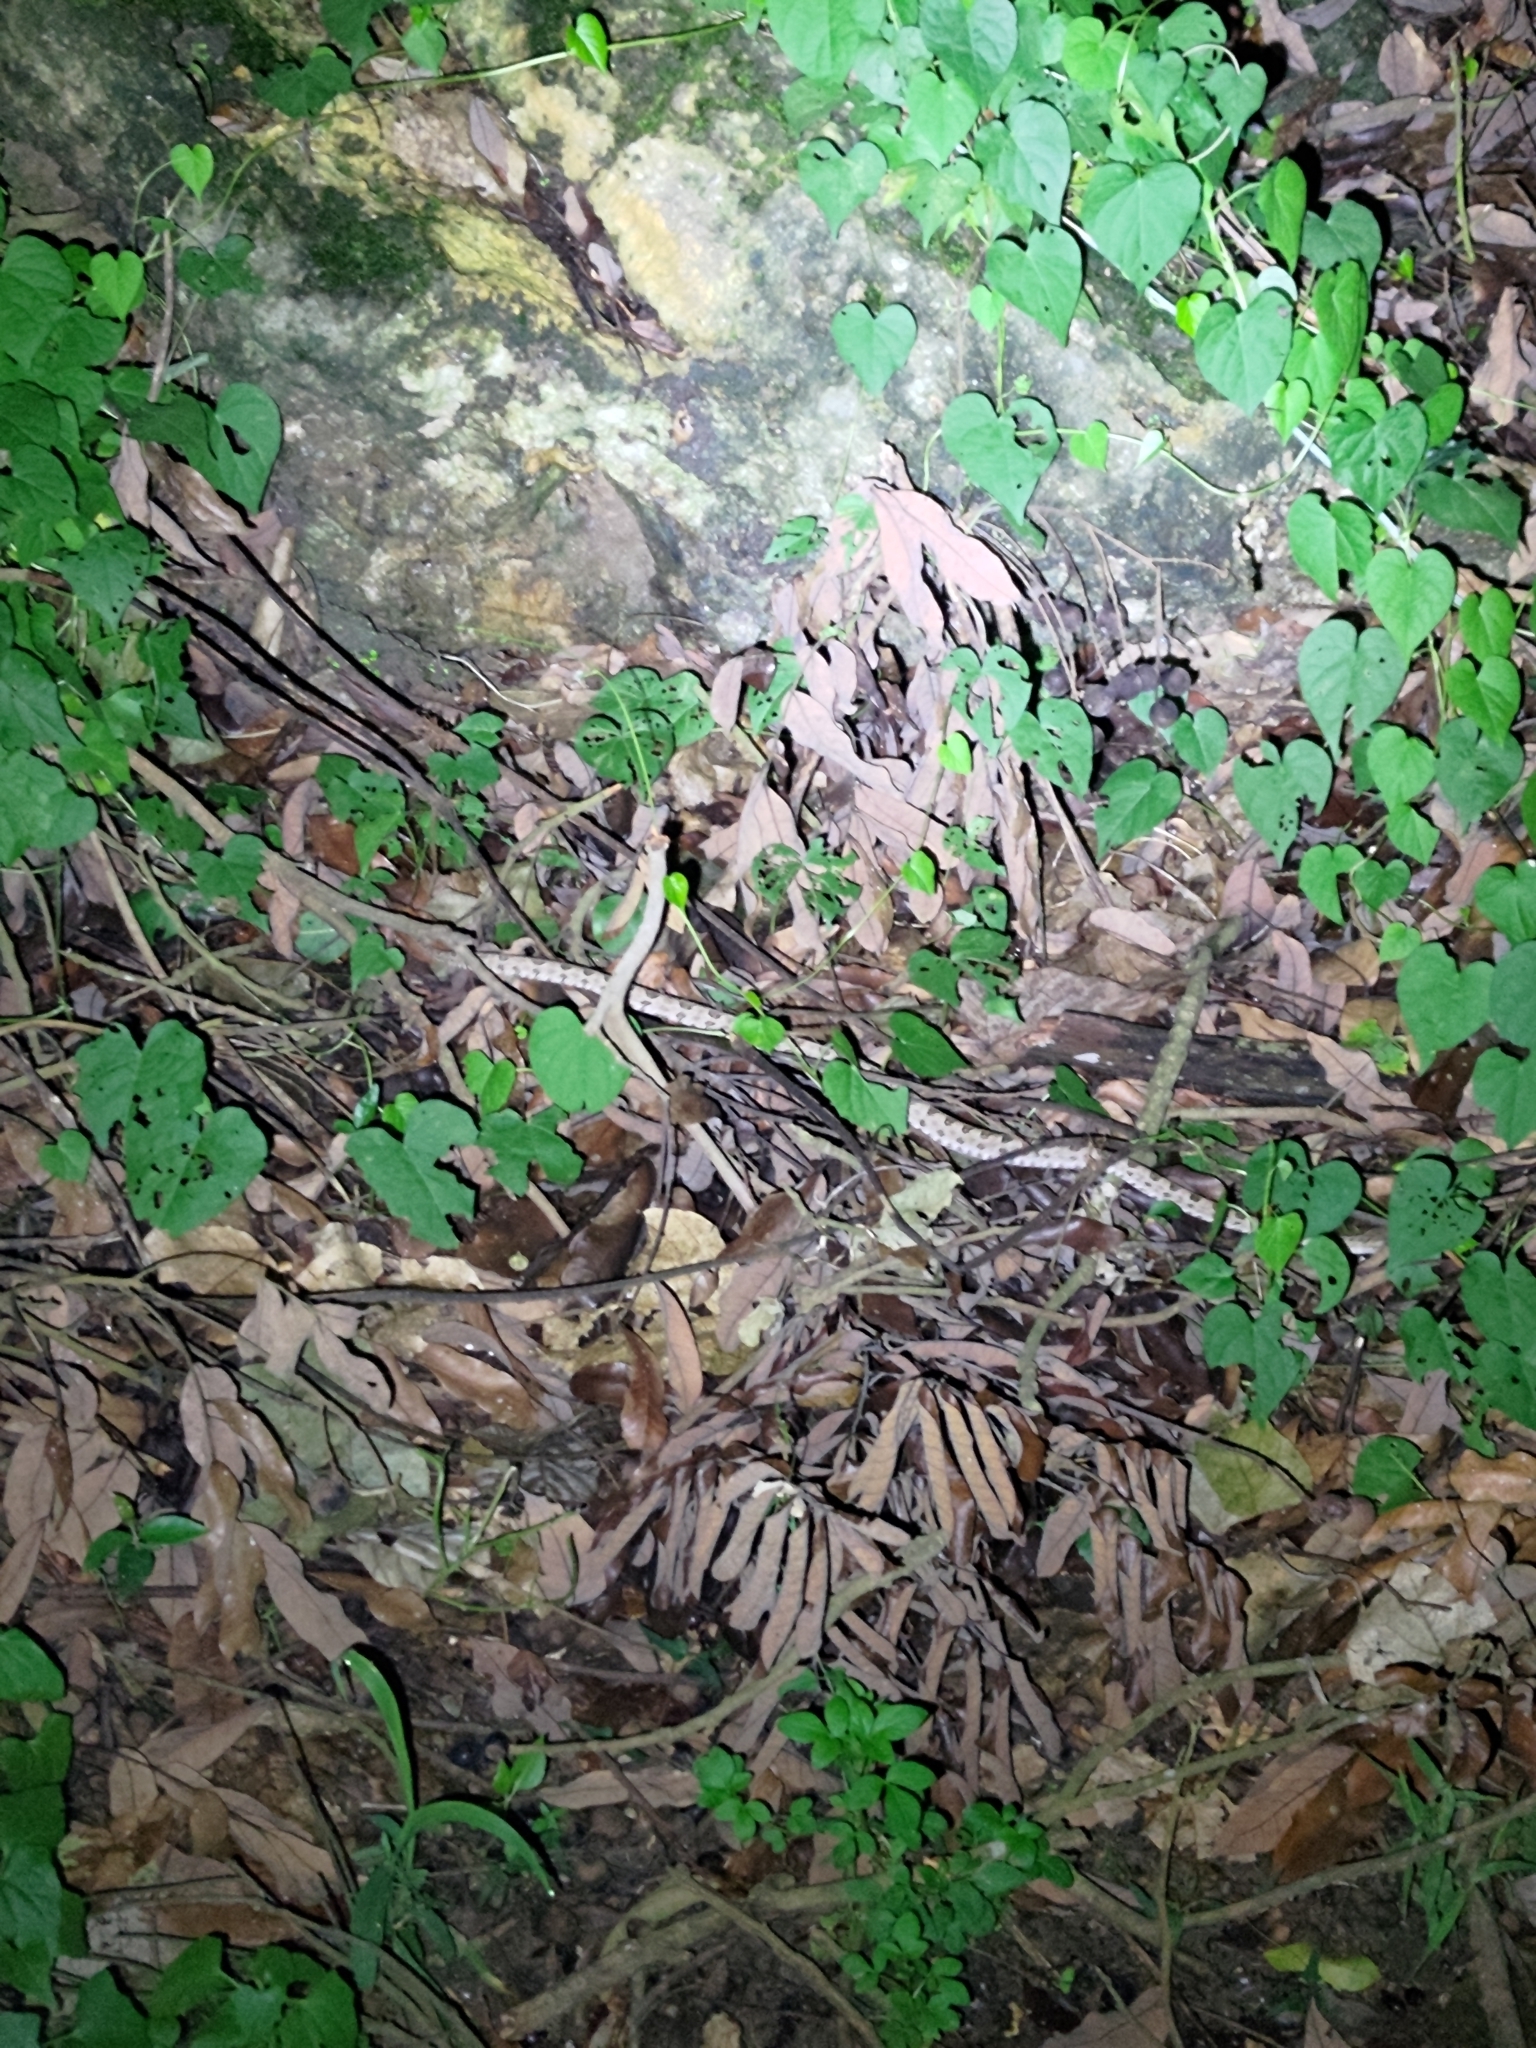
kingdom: Animalia
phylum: Chordata
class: Squamata
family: Viperidae
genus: Protobothrops
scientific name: Protobothrops mucrosquamatus
